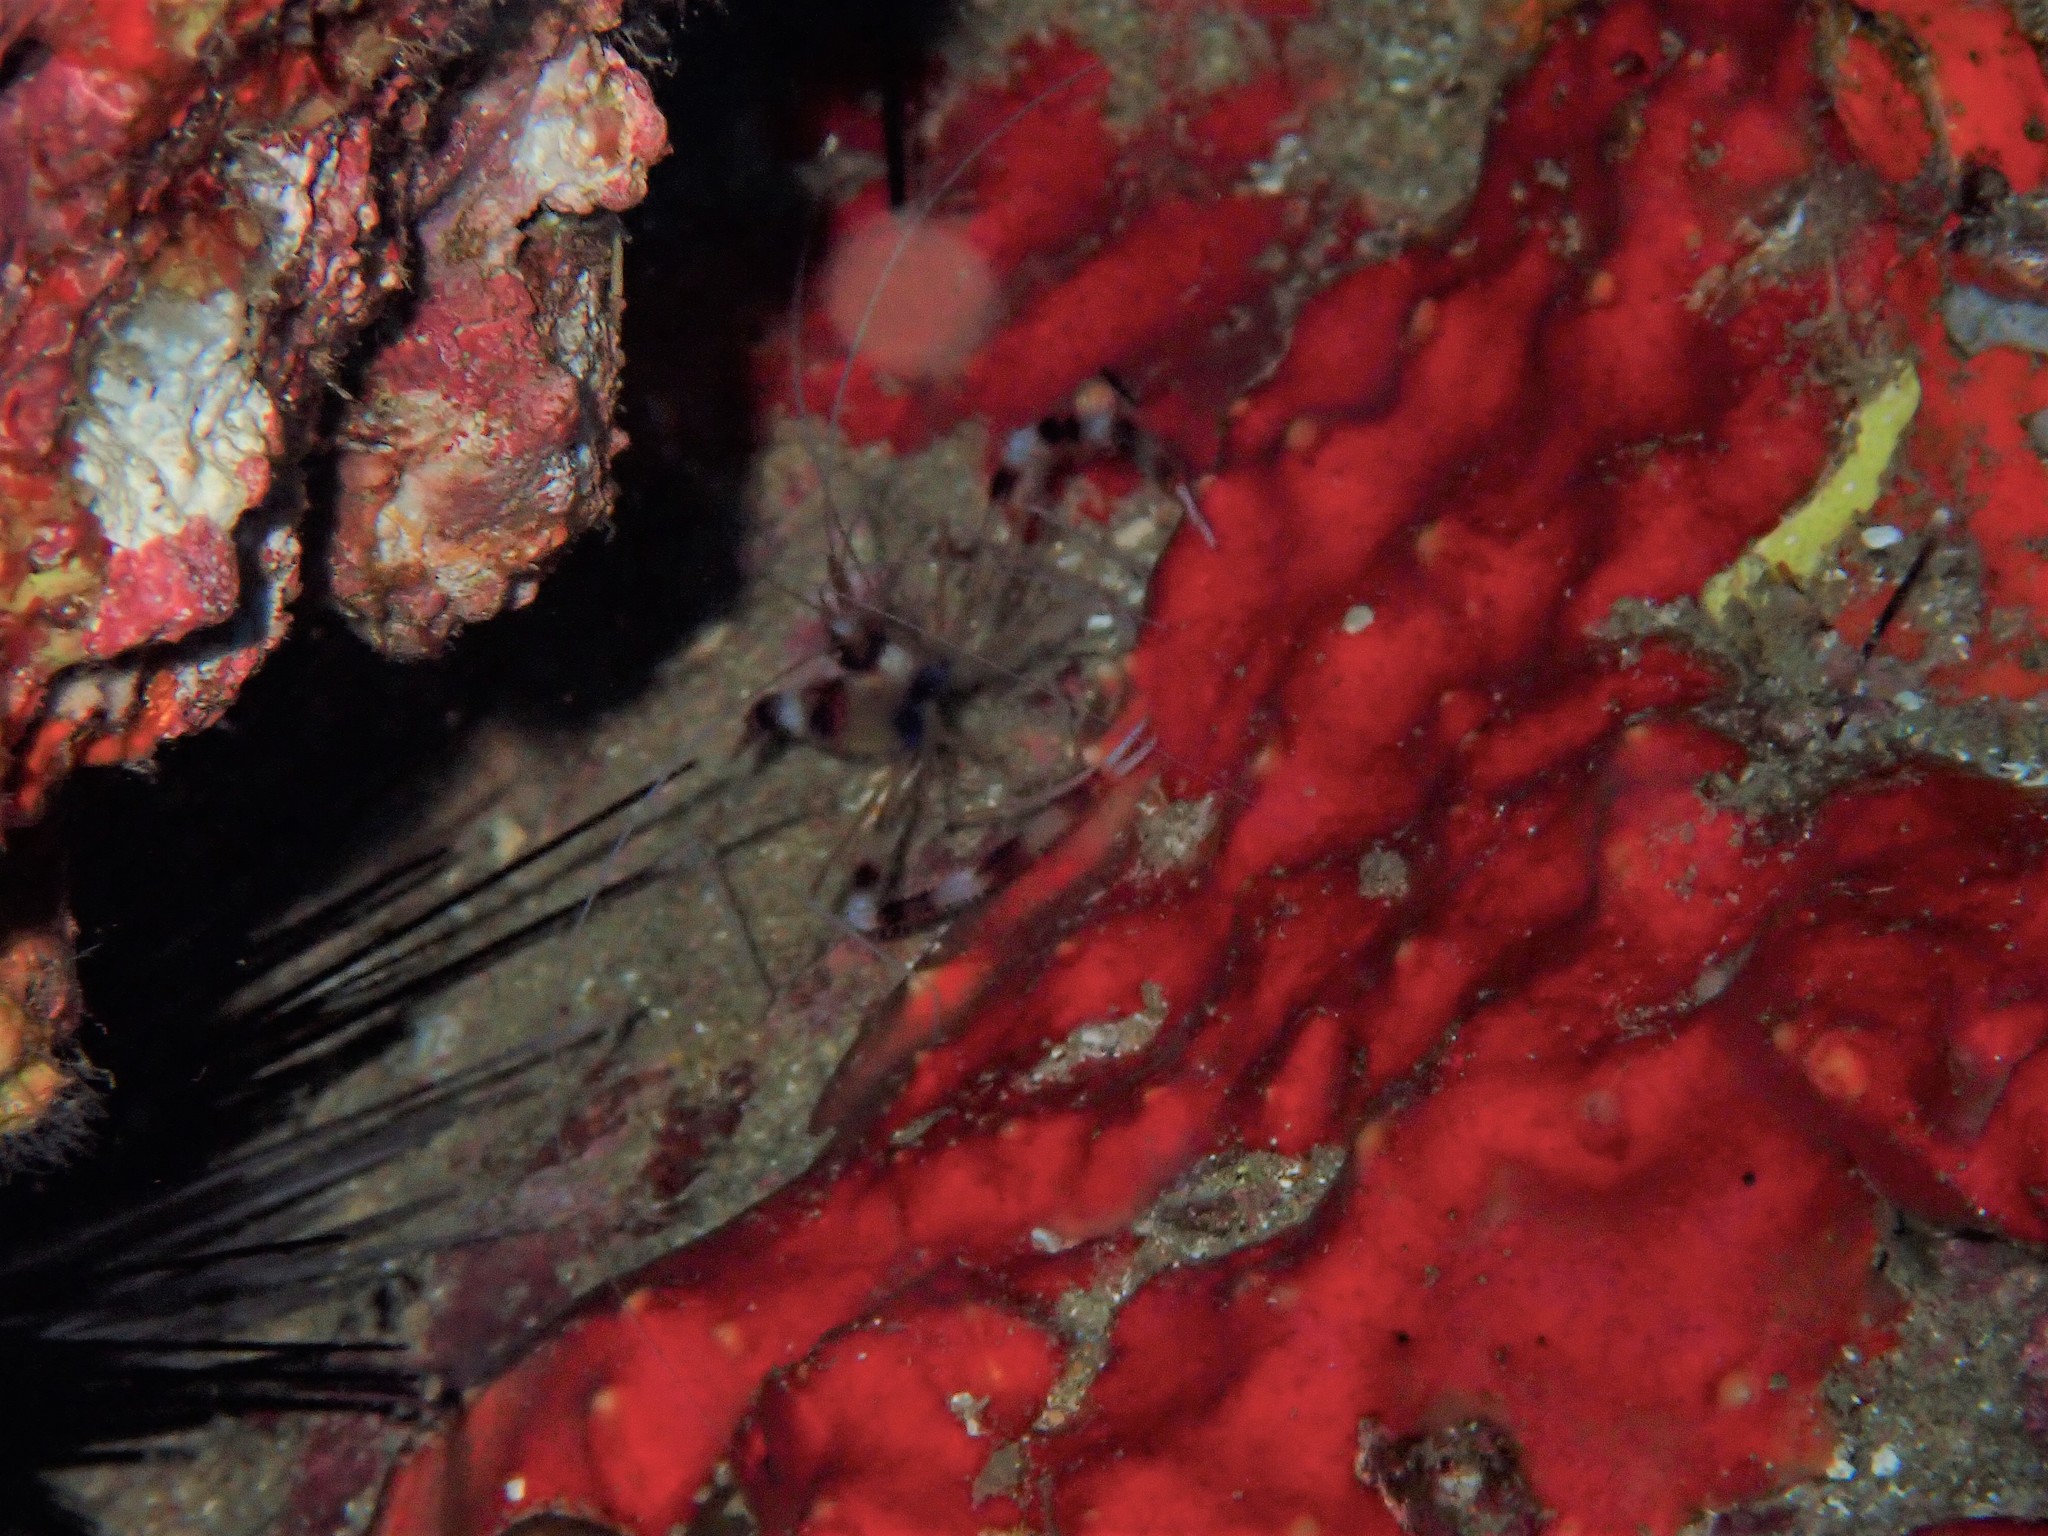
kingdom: Animalia
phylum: Arthropoda
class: Malacostraca
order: Decapoda
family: Stenopodidae
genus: Stenopus
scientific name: Stenopus hispidus
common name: Banded coral shrimp
